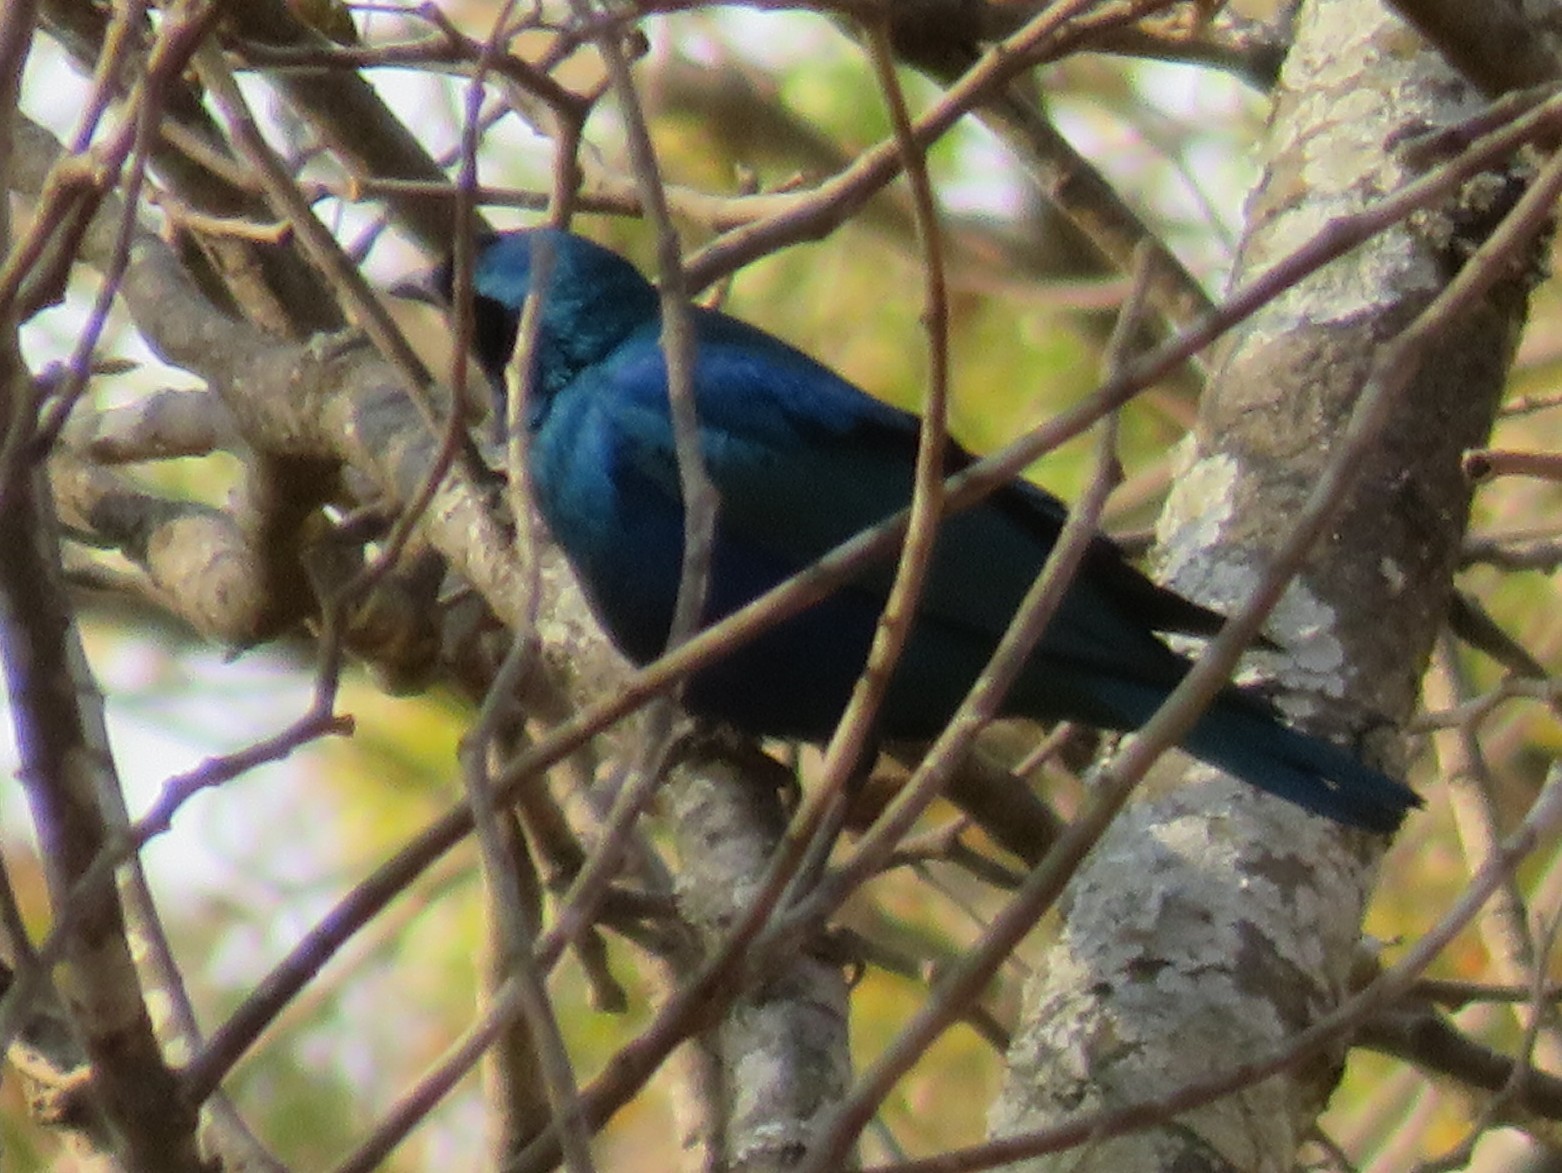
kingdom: Animalia
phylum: Chordata
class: Aves
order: Passeriformes
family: Sturnidae
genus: Lamprotornis
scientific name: Lamprotornis chloropterus
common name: Lesser blue-eared starling
